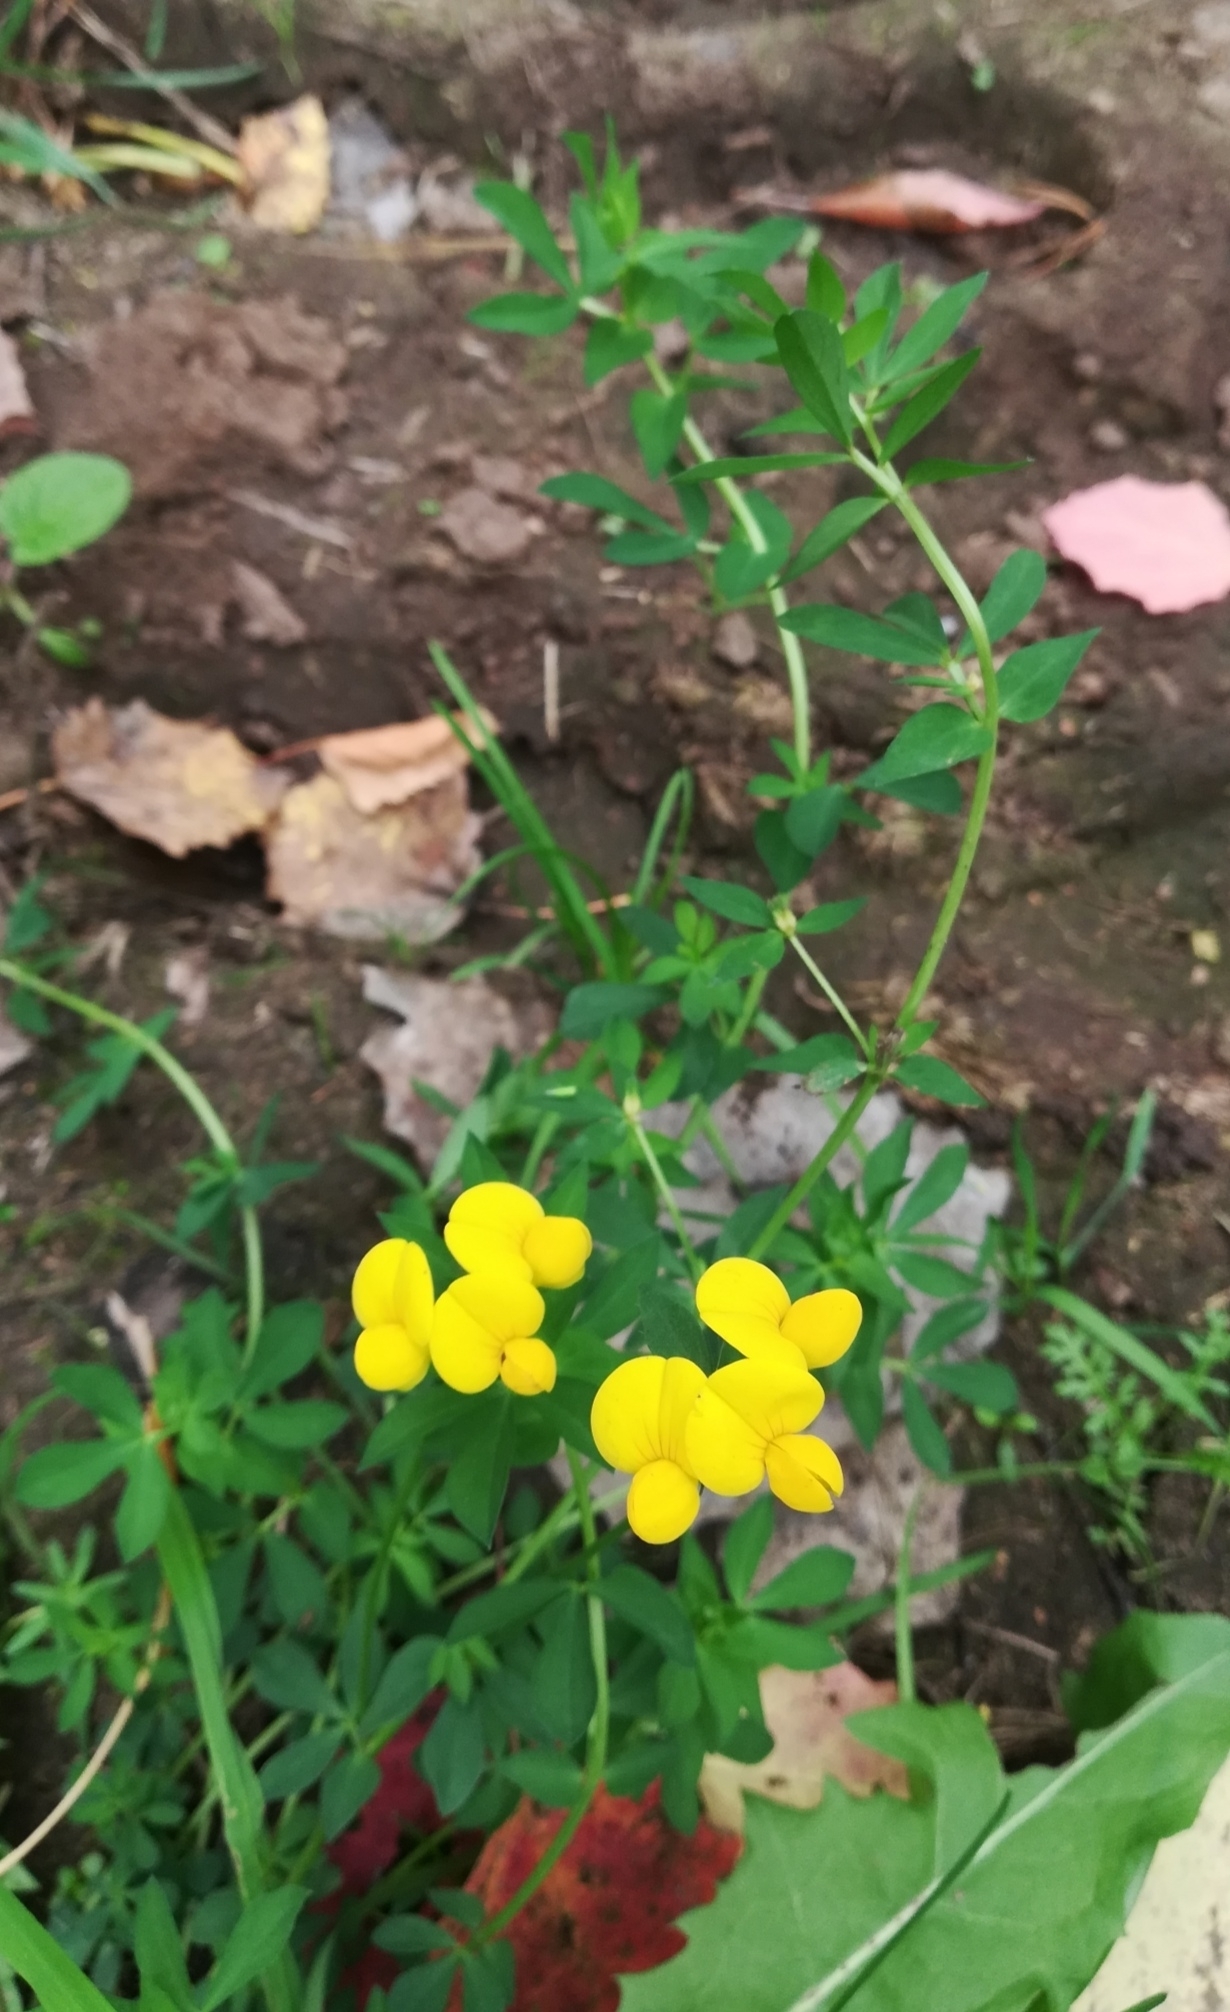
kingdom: Plantae
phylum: Tracheophyta
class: Magnoliopsida
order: Fabales
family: Fabaceae
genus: Lotus
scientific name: Lotus corniculatus
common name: Common bird's-foot-trefoil
